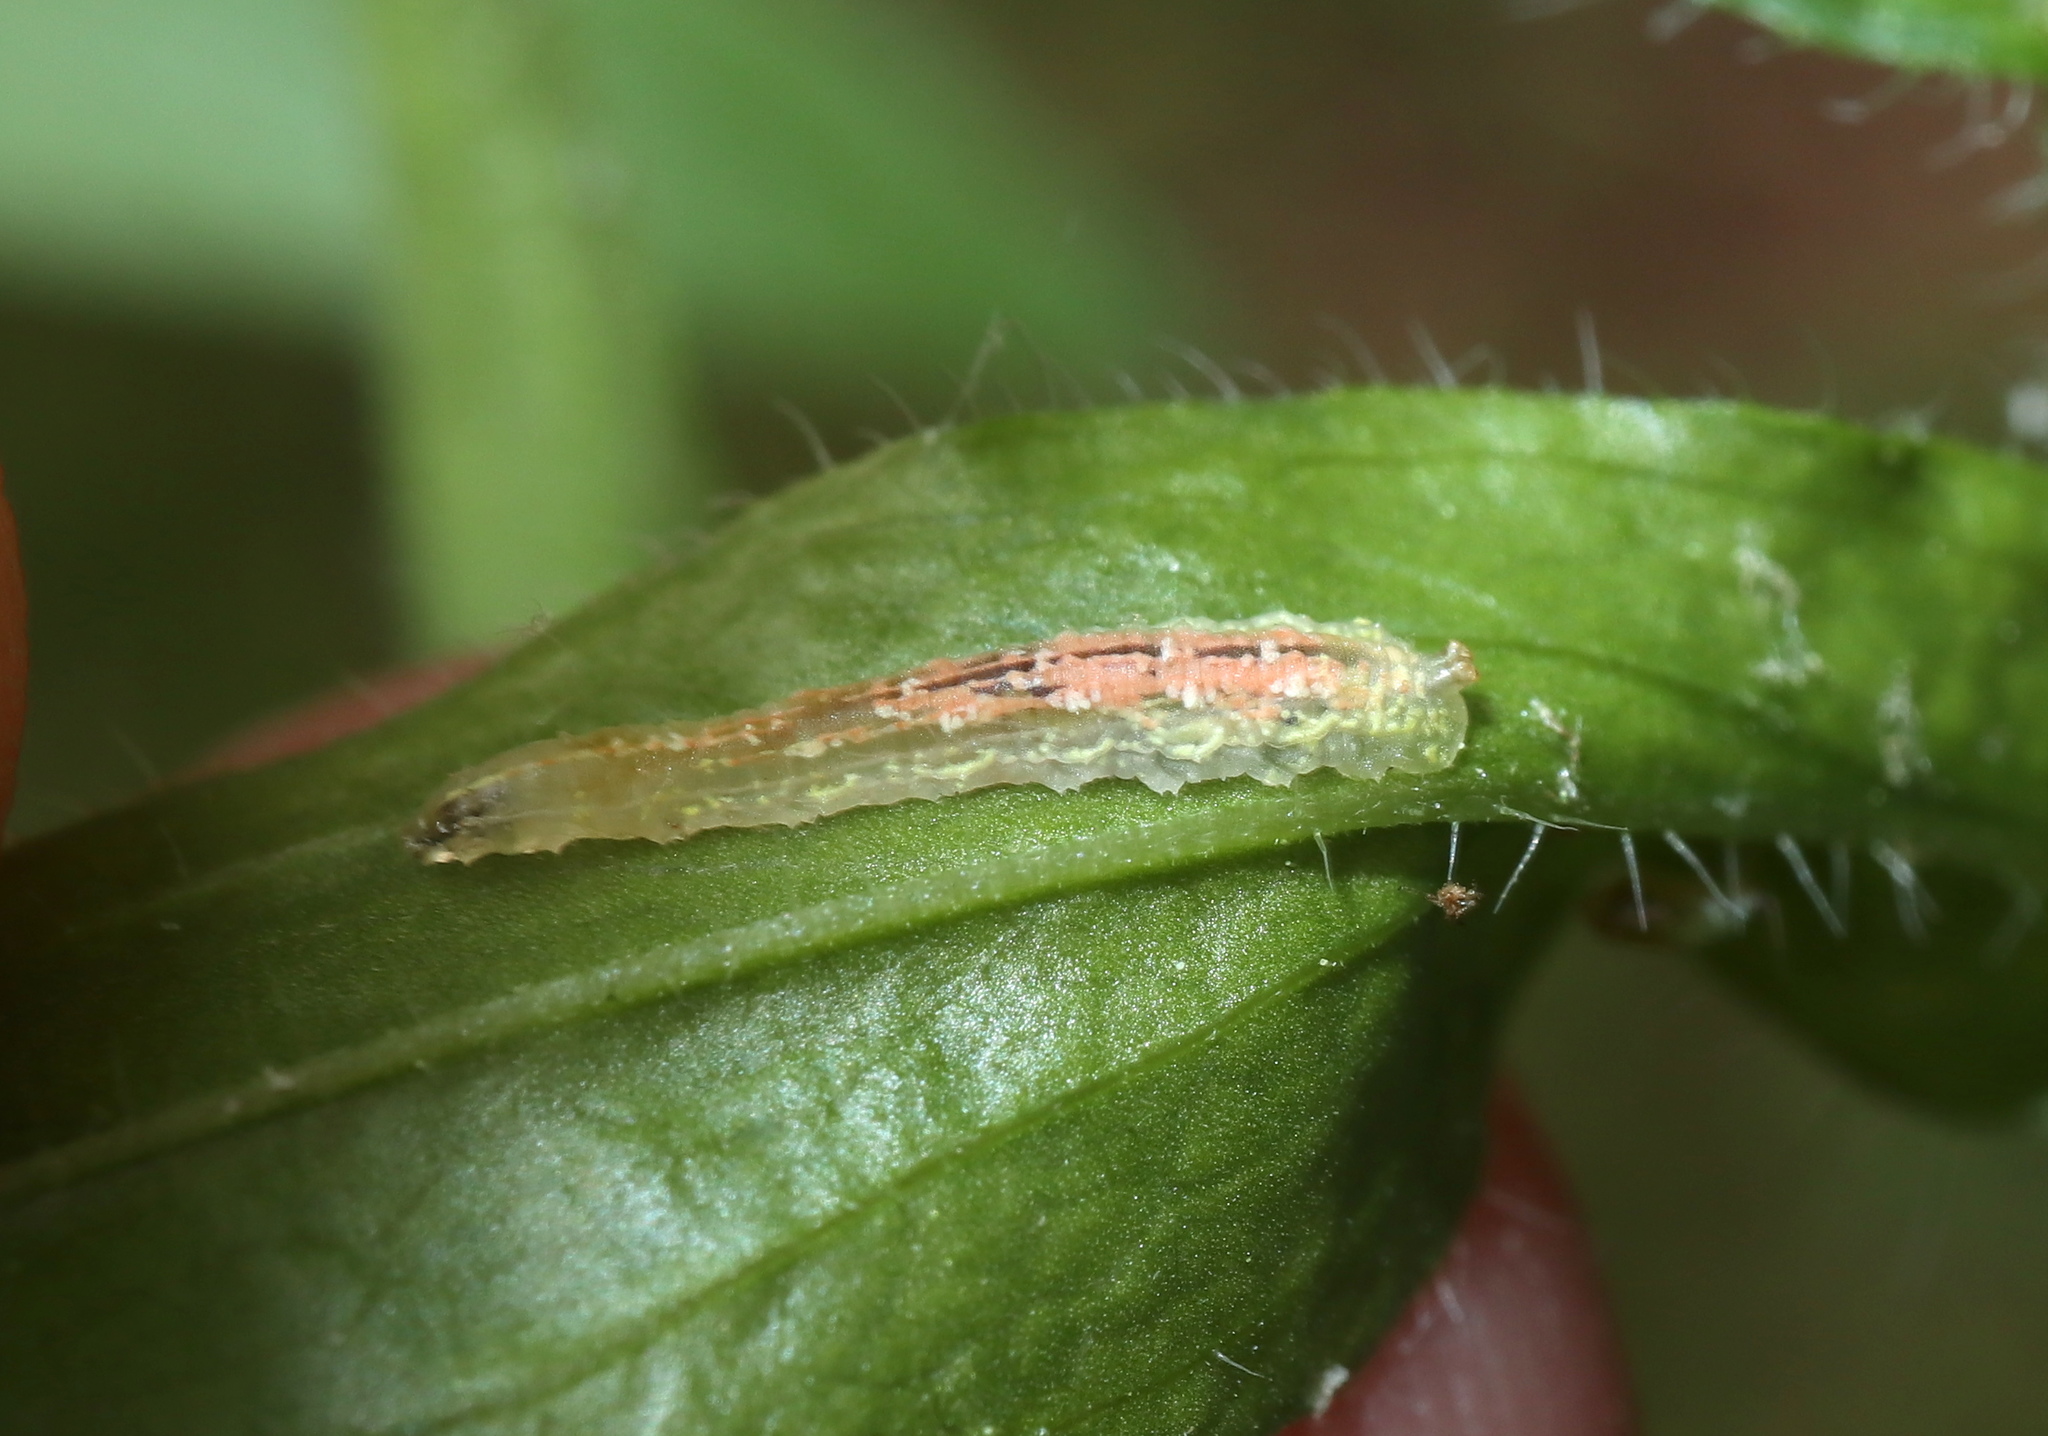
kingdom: Animalia
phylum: Arthropoda
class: Insecta
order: Diptera
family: Syrphidae
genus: Syrphus
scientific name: Syrphus
